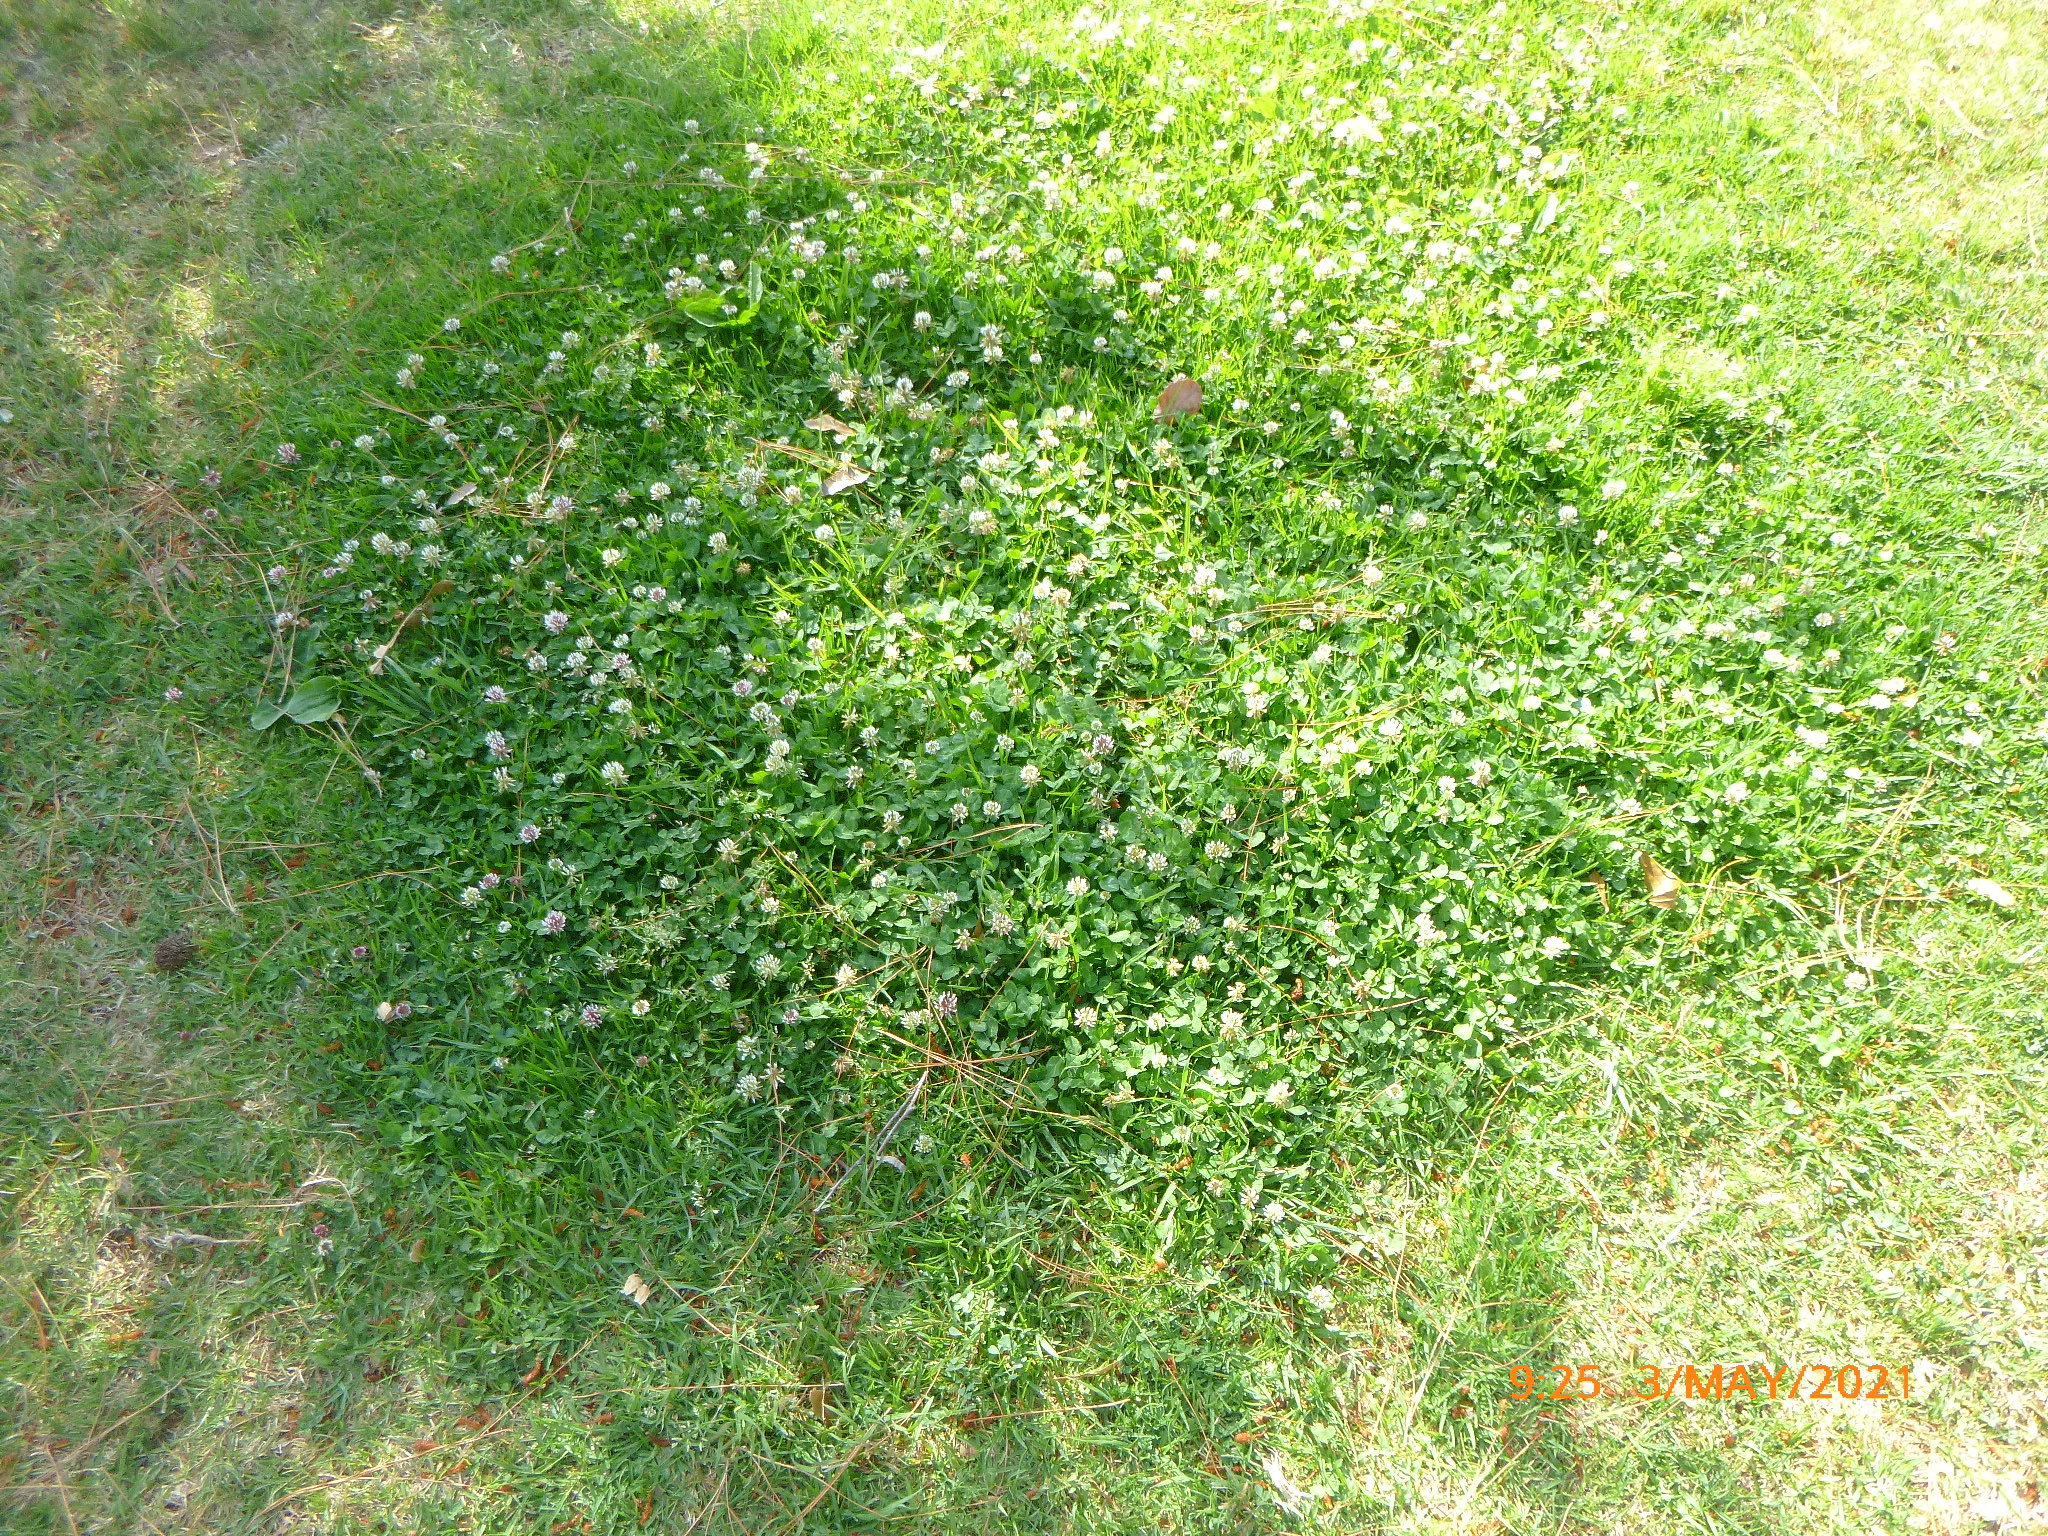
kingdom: Plantae
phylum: Tracheophyta
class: Magnoliopsida
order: Fabales
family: Fabaceae
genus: Trifolium
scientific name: Trifolium repens
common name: White clover
